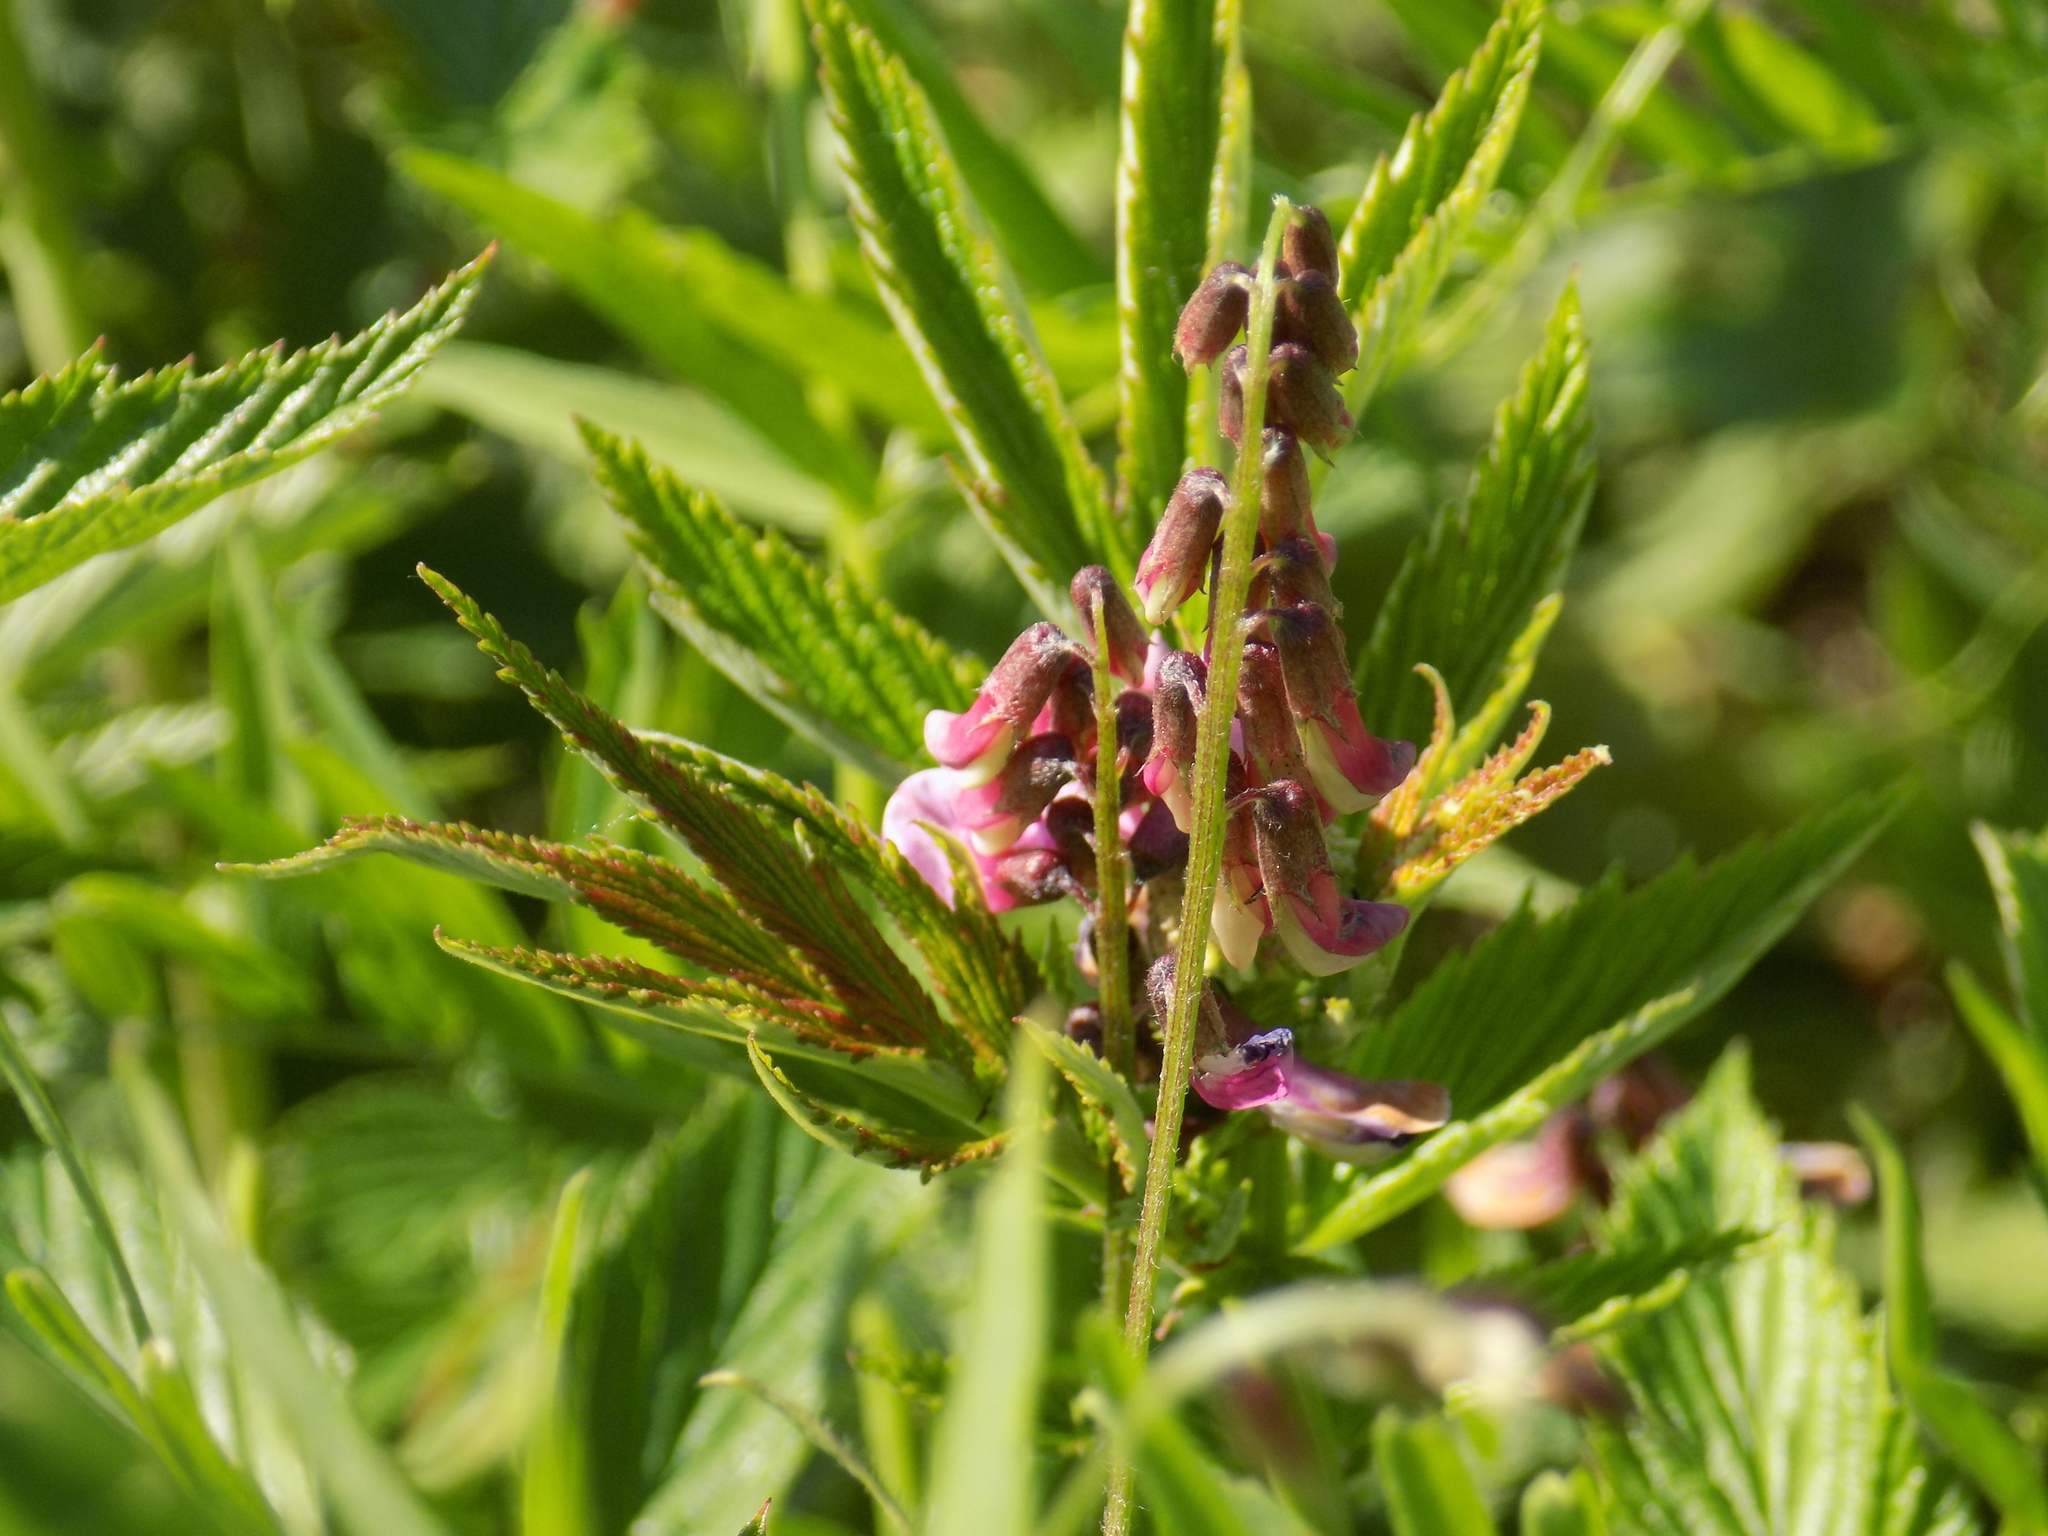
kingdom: Plantae
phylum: Tracheophyta
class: Magnoliopsida
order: Fabales
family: Fabaceae
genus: Vicia
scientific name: Vicia megalotropis
